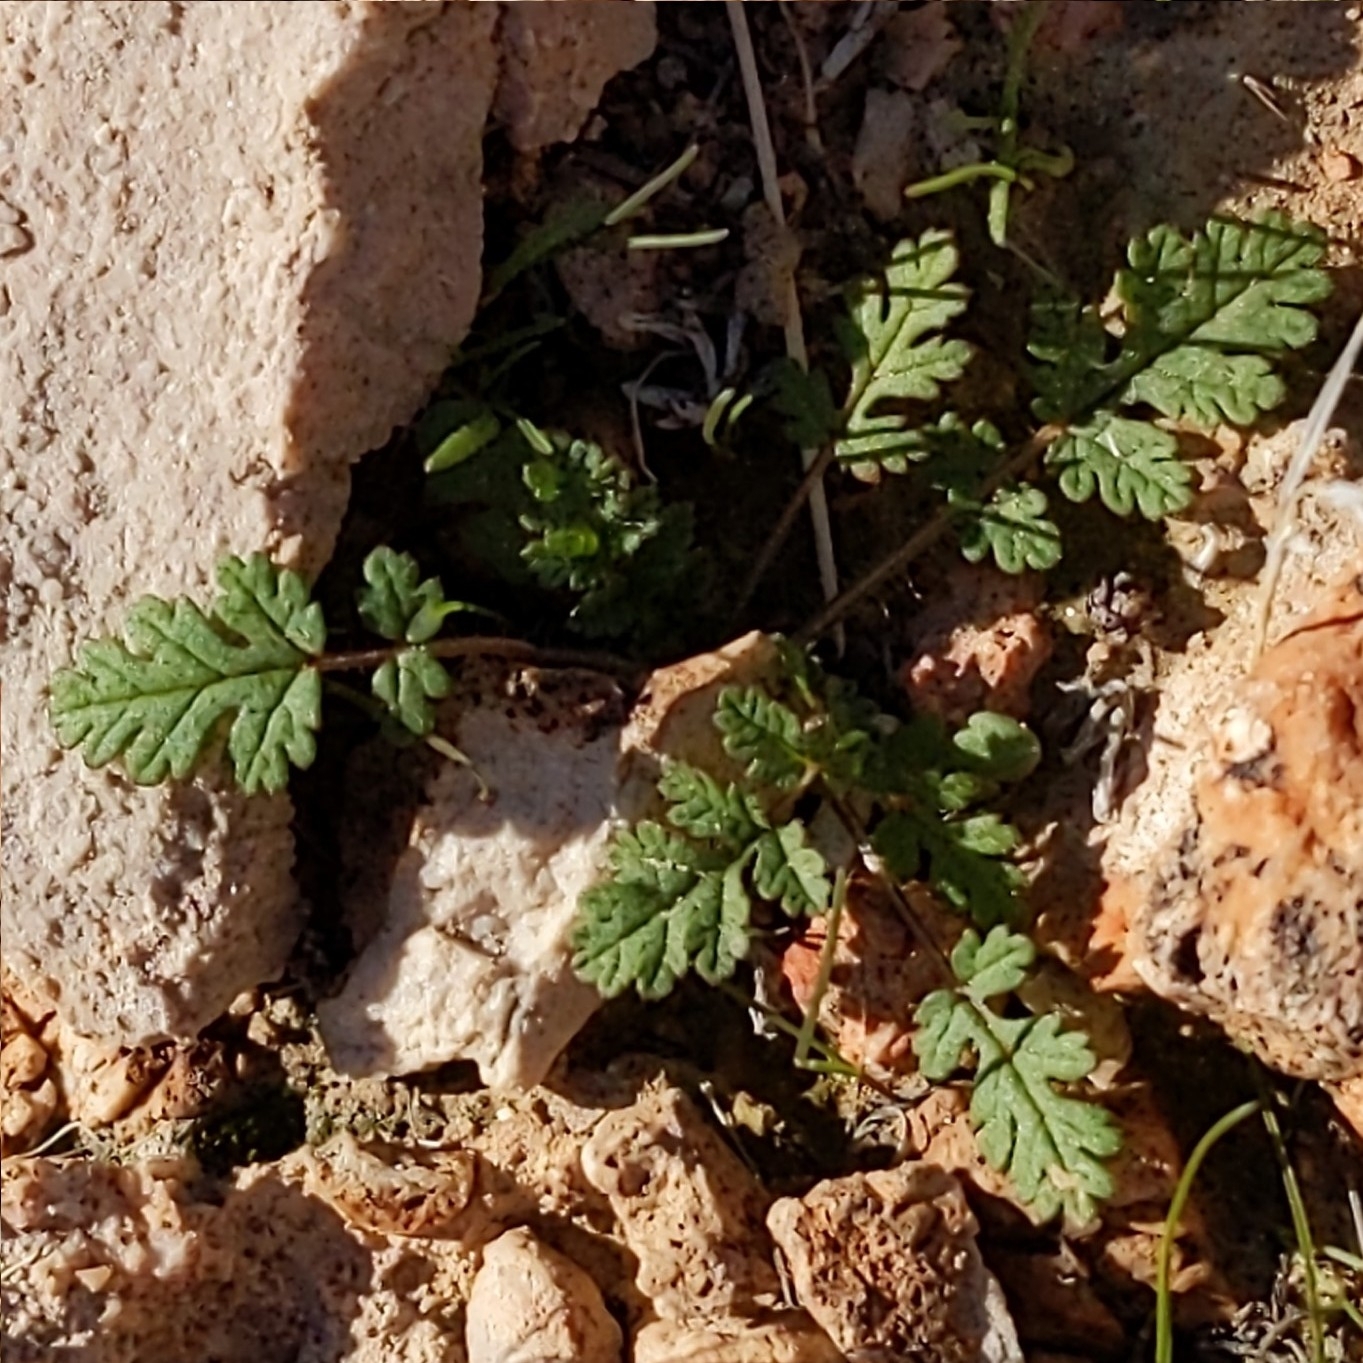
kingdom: Plantae
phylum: Tracheophyta
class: Magnoliopsida
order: Geraniales
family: Geraniaceae
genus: Erodium
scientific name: Erodium cicutarium
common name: Common stork's-bill
